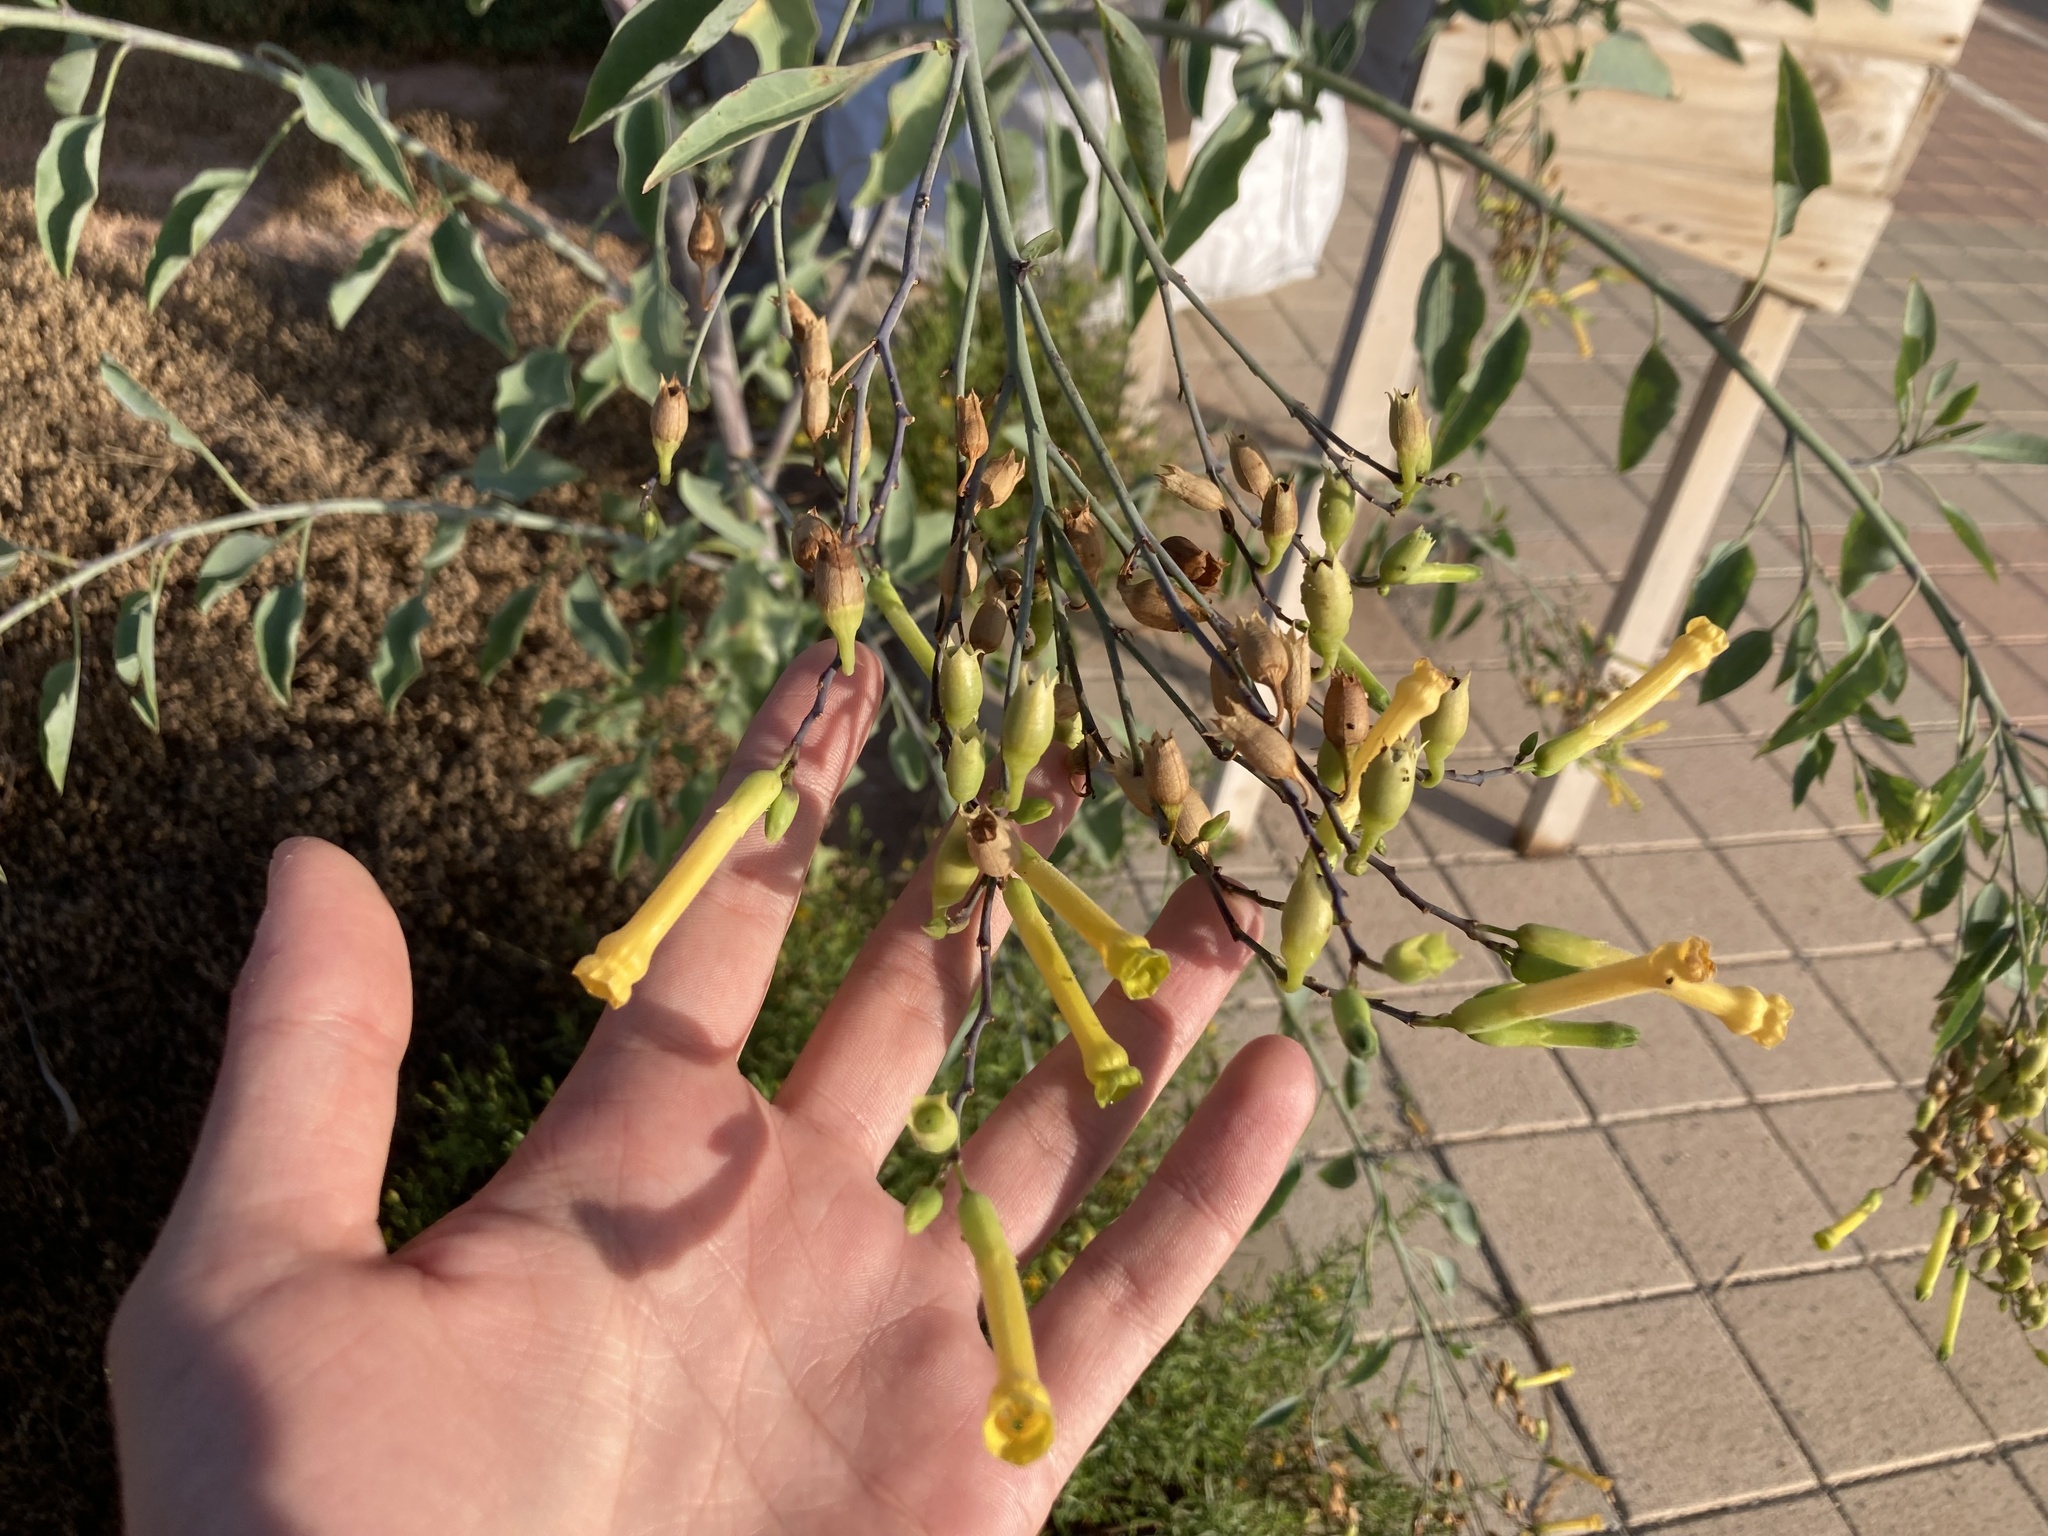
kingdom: Plantae
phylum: Tracheophyta
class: Magnoliopsida
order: Solanales
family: Solanaceae
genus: Nicotiana
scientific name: Nicotiana glauca
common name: Tree tobacco
